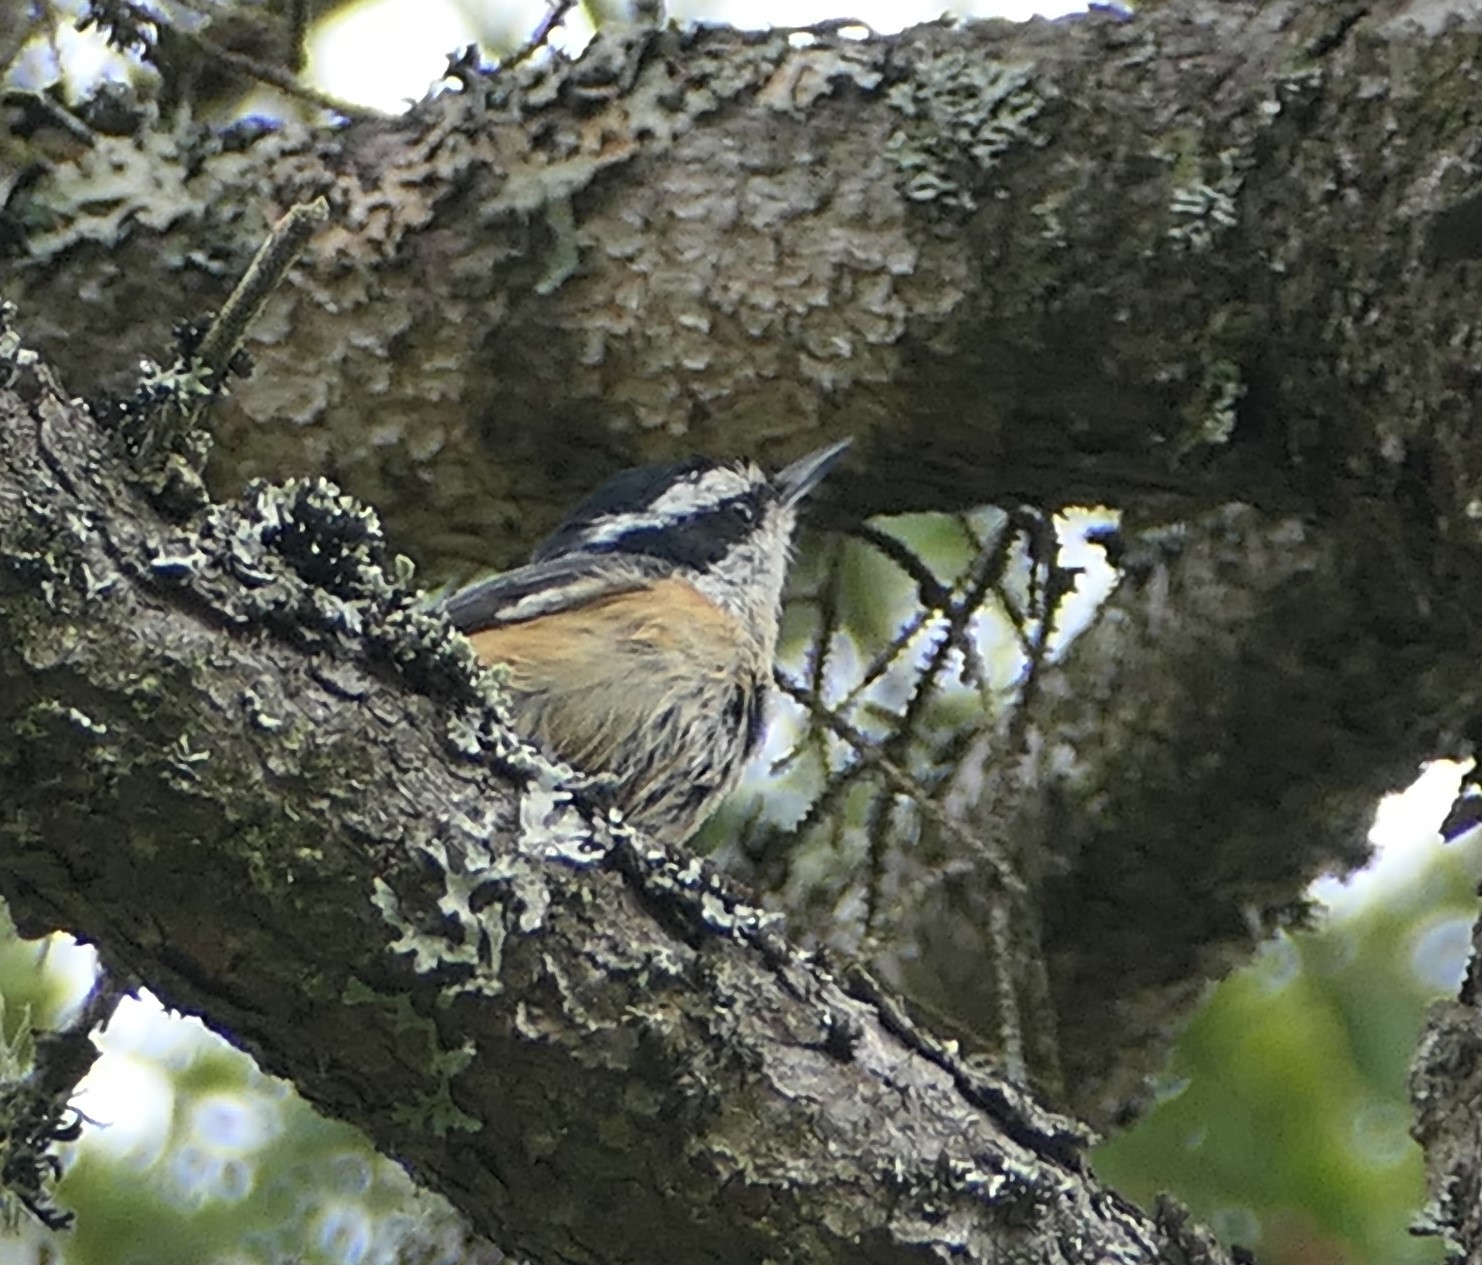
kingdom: Animalia
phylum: Chordata
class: Aves
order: Passeriformes
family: Sittidae
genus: Sitta
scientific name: Sitta canadensis
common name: Red-breasted nuthatch
